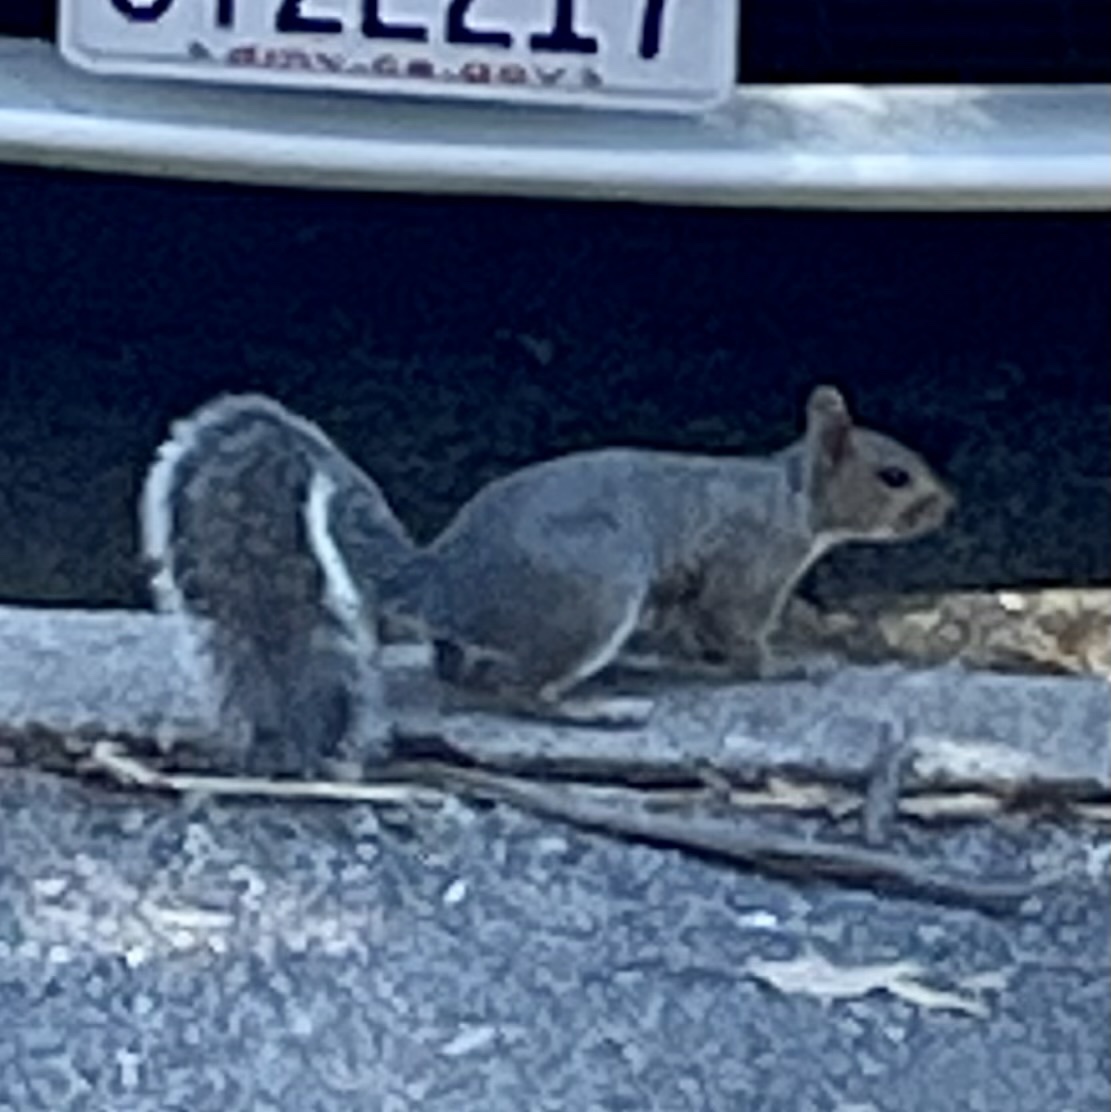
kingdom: Animalia
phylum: Chordata
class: Mammalia
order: Rodentia
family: Sciuridae
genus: Sciurus
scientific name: Sciurus carolinensis
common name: Eastern gray squirrel
